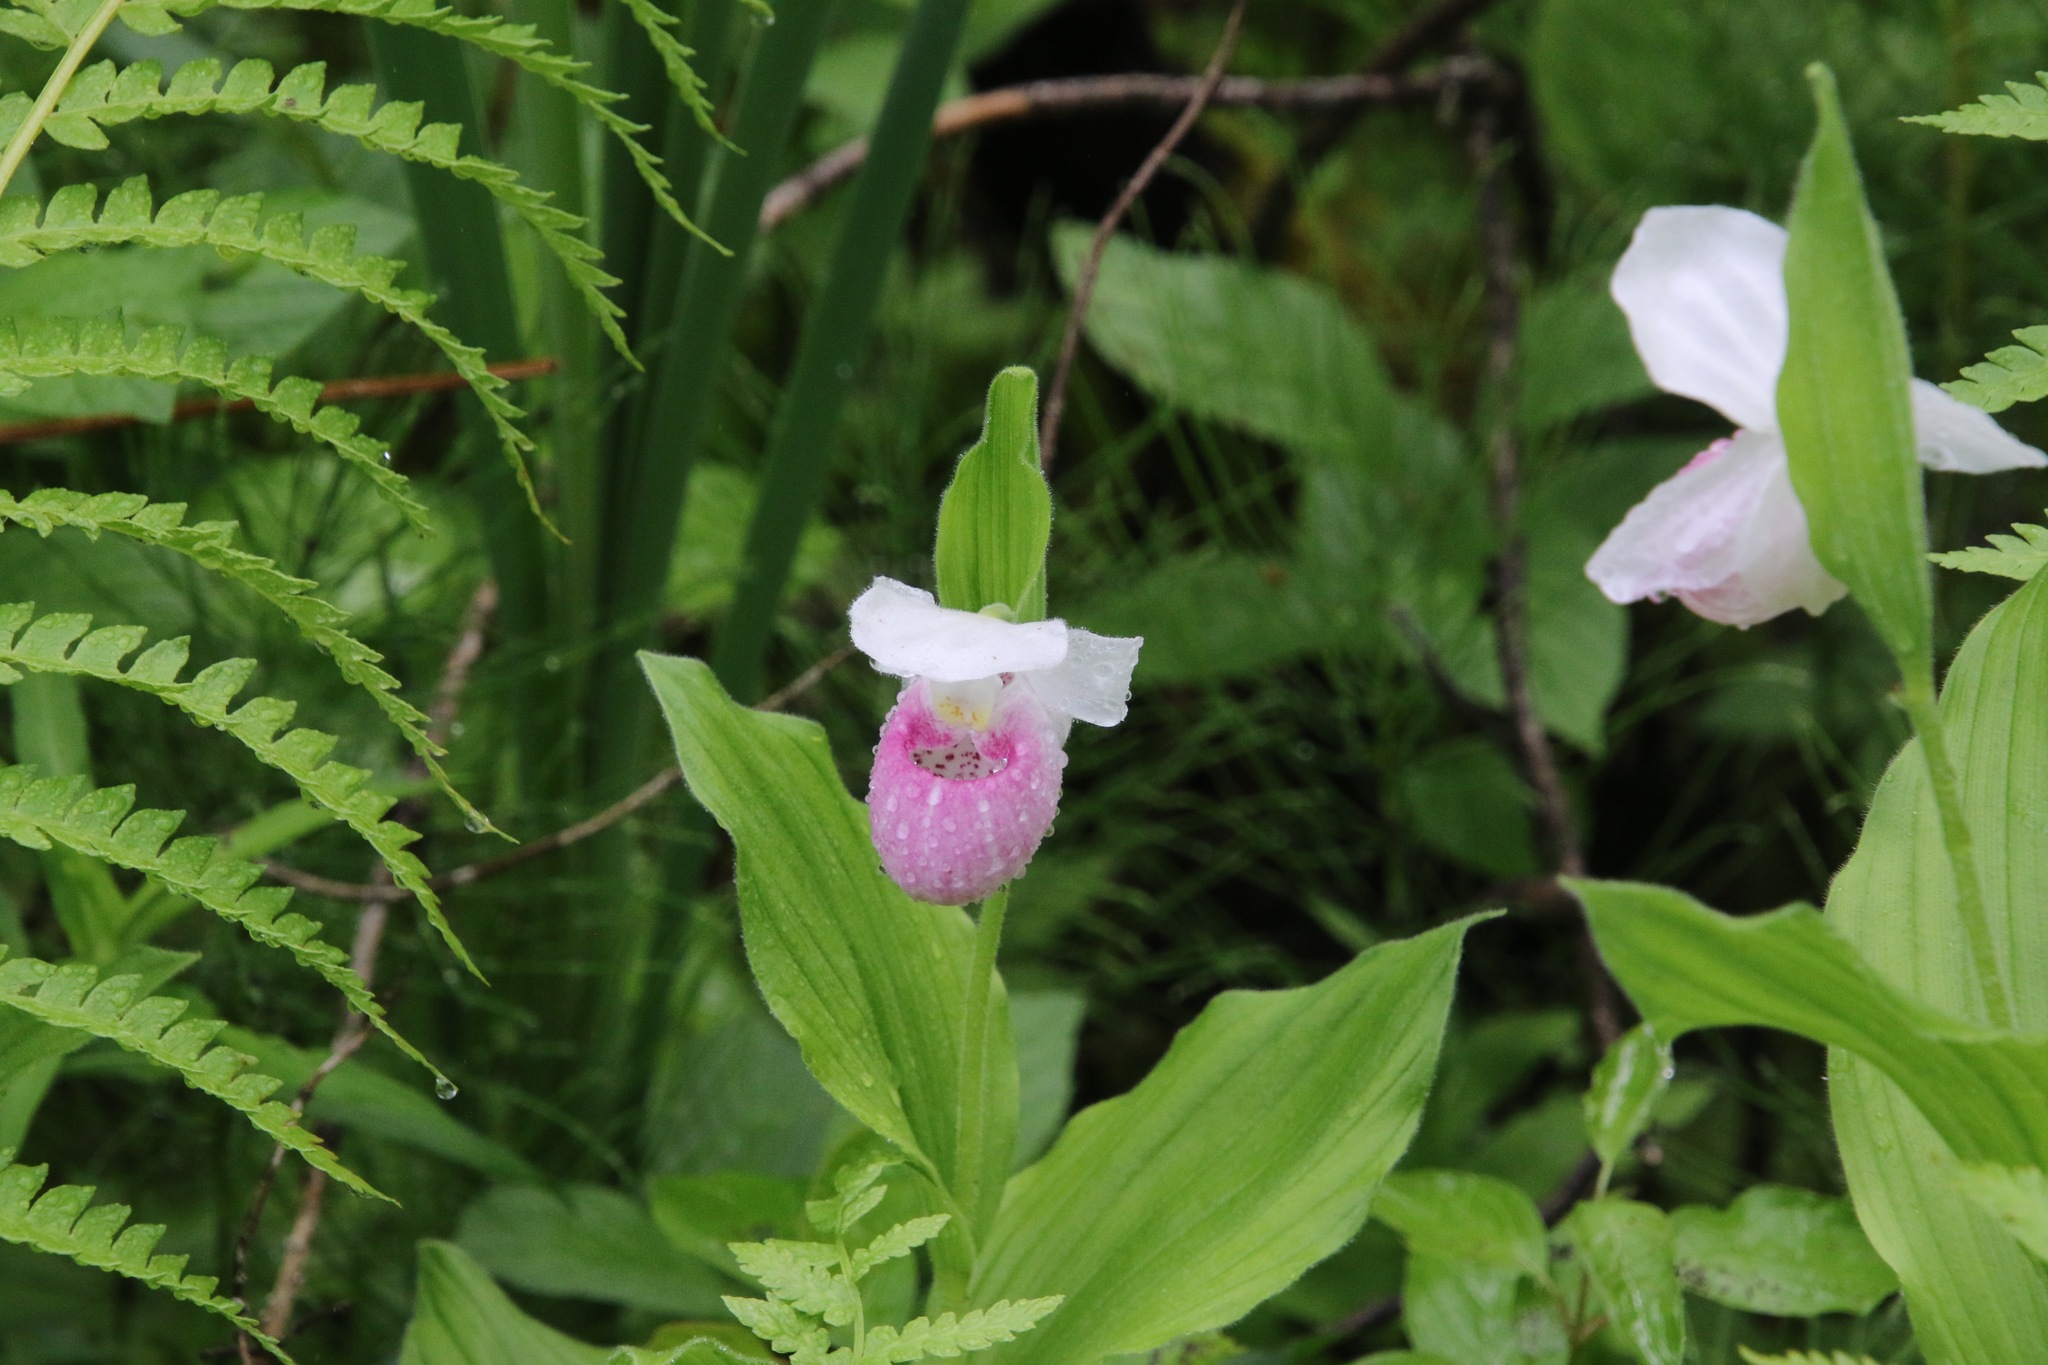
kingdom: Plantae
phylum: Tracheophyta
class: Liliopsida
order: Asparagales
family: Orchidaceae
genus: Cypripedium
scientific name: Cypripedium reginae
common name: Queen lady's-slipper
